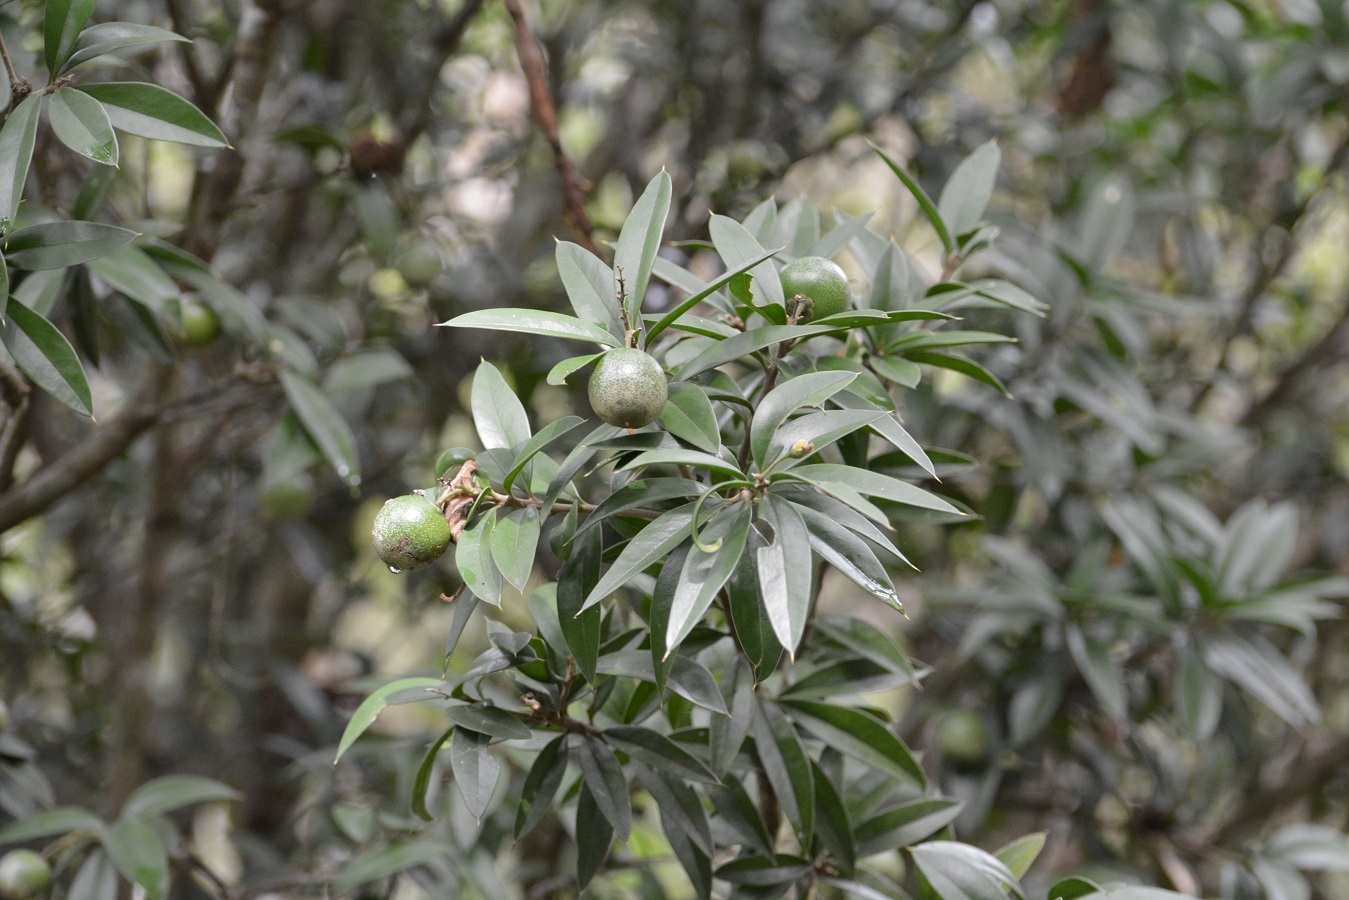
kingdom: Plantae
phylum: Tracheophyta
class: Magnoliopsida
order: Ericales
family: Primulaceae
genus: Bonellia
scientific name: Bonellia macrocarpa
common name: Primrose
